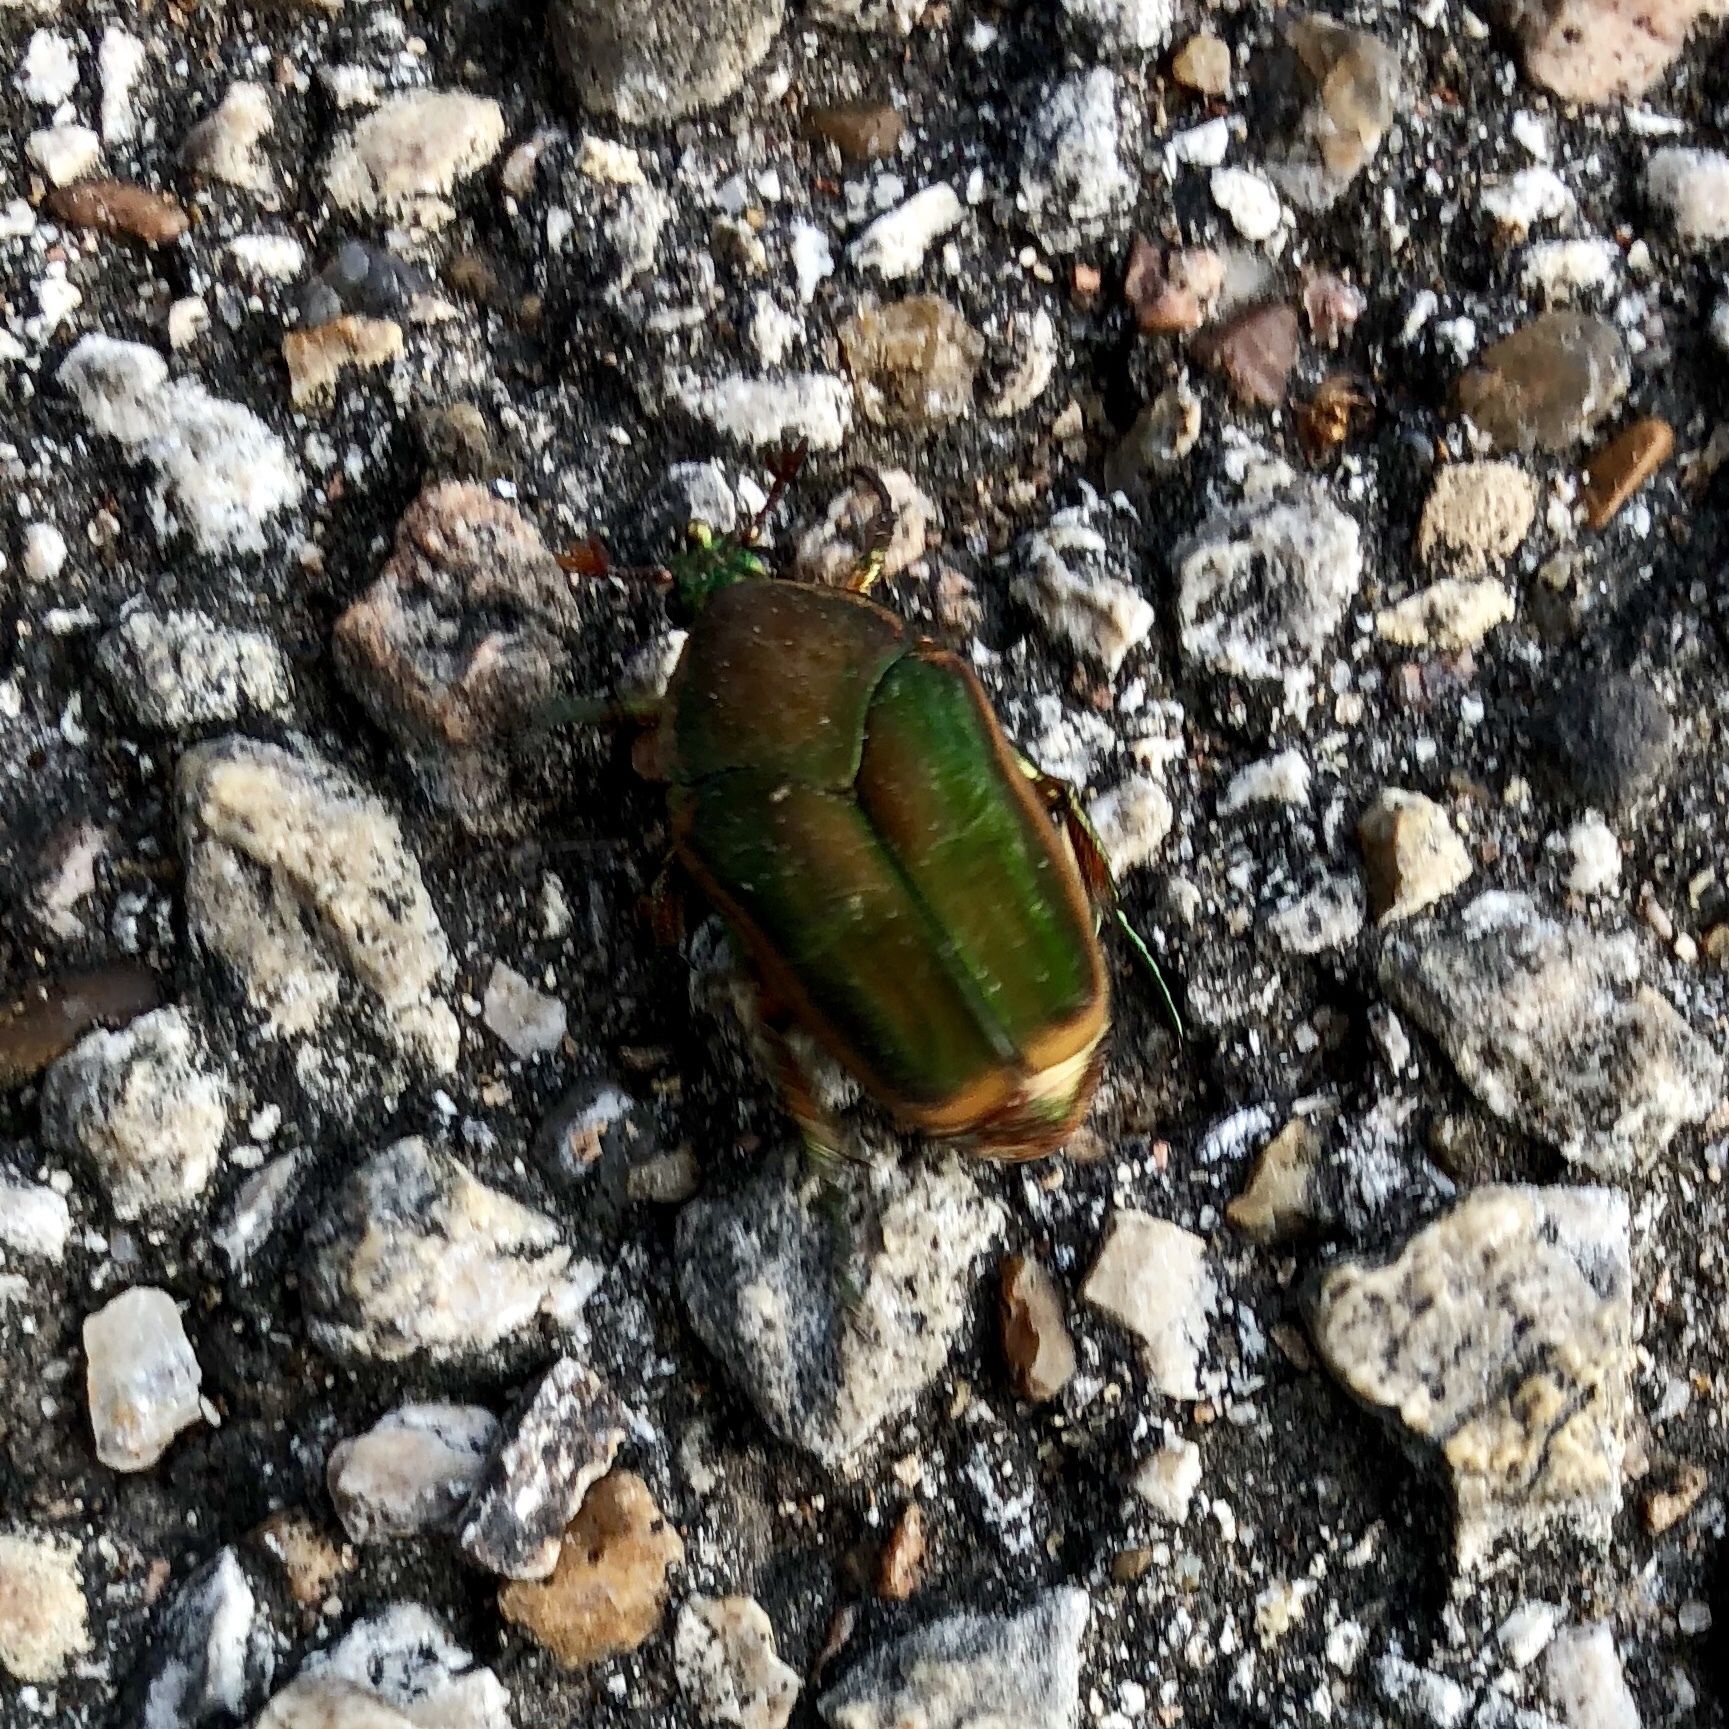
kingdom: Animalia
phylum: Arthropoda
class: Insecta
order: Coleoptera
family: Scarabaeidae
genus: Cotinis
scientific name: Cotinis nitida
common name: Common green june beetle
